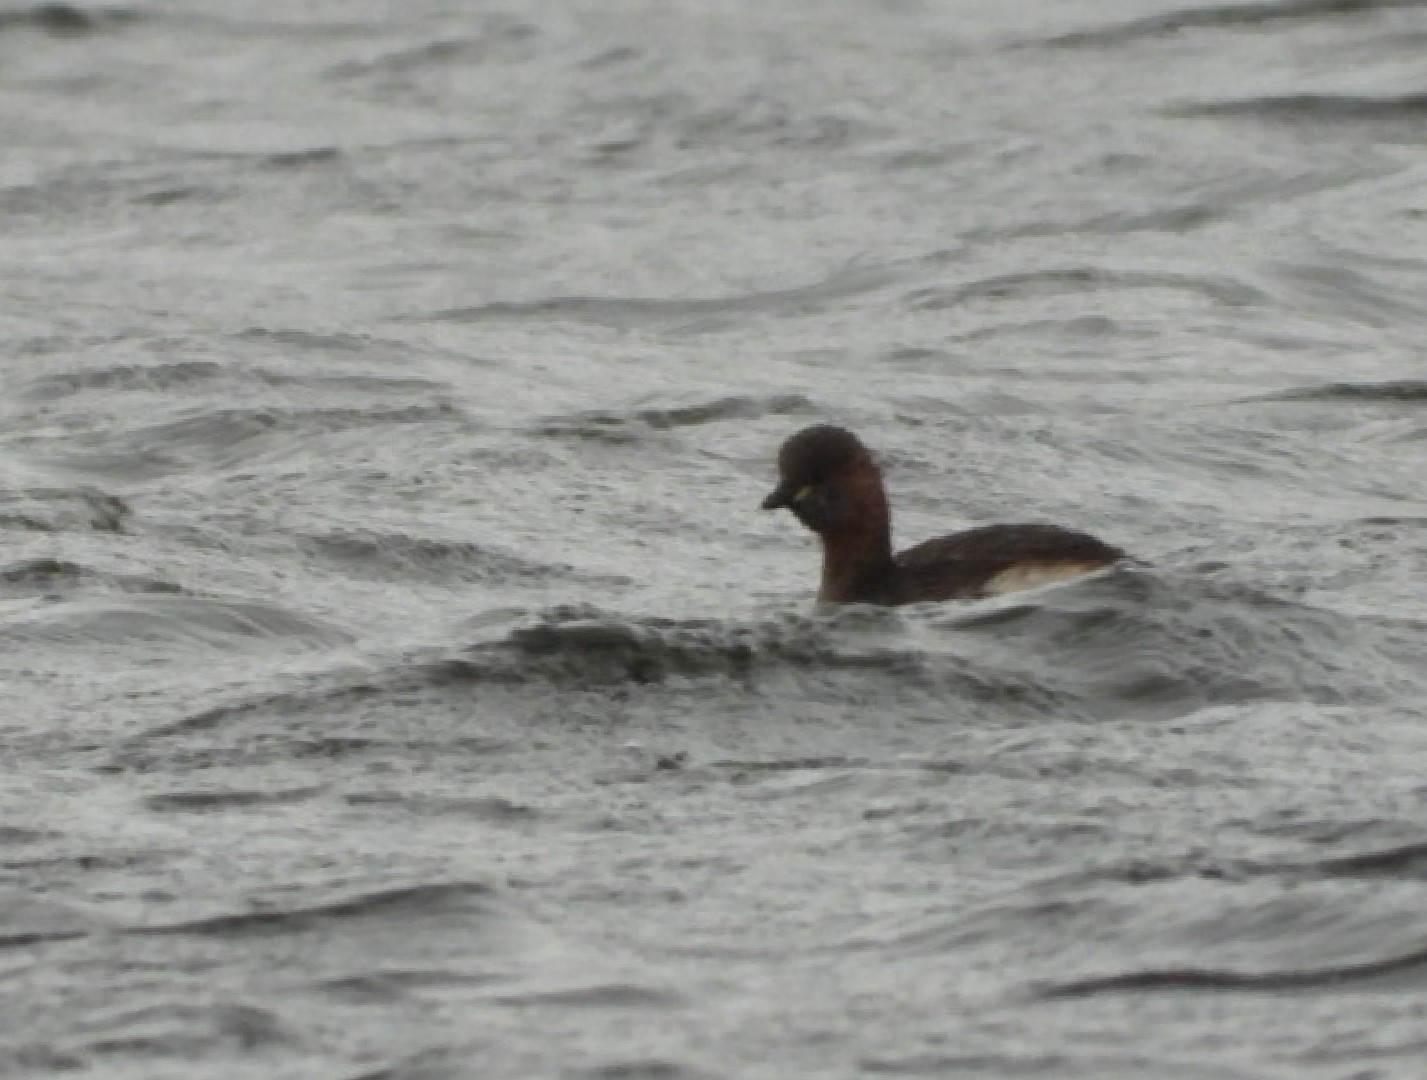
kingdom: Animalia
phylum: Chordata
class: Aves
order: Podicipediformes
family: Podicipedidae
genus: Tachybaptus
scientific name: Tachybaptus ruficollis
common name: Little grebe
